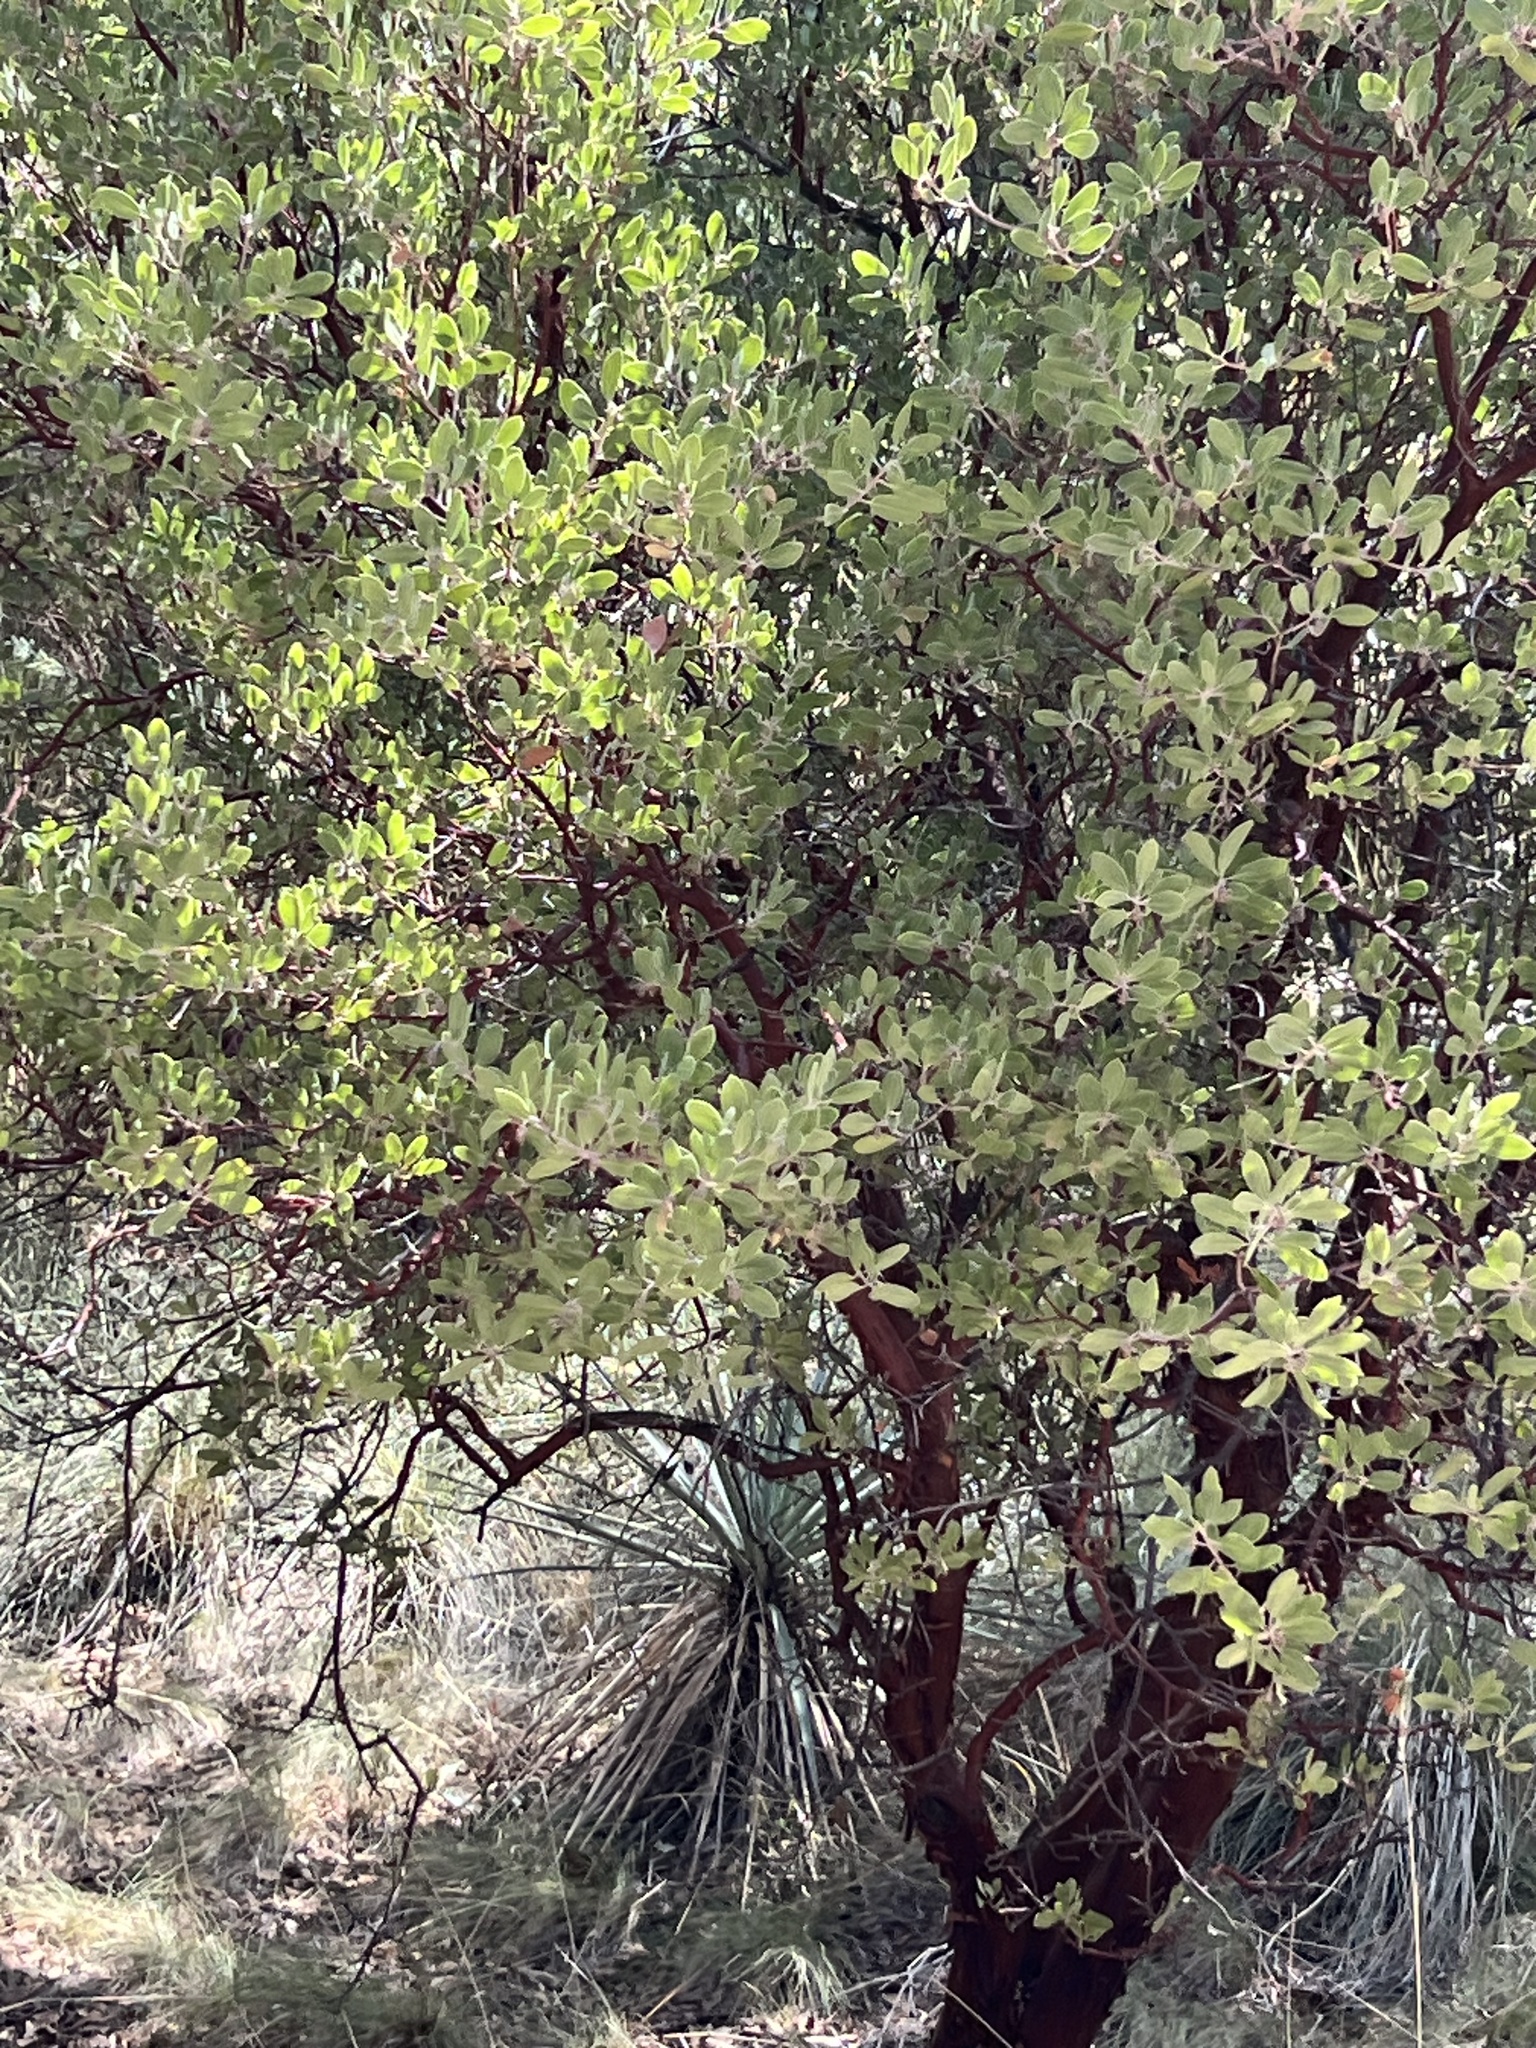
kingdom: Plantae
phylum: Tracheophyta
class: Magnoliopsida
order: Ericales
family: Ericaceae
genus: Arctostaphylos
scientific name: Arctostaphylos pungens
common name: Mexican manzanita
